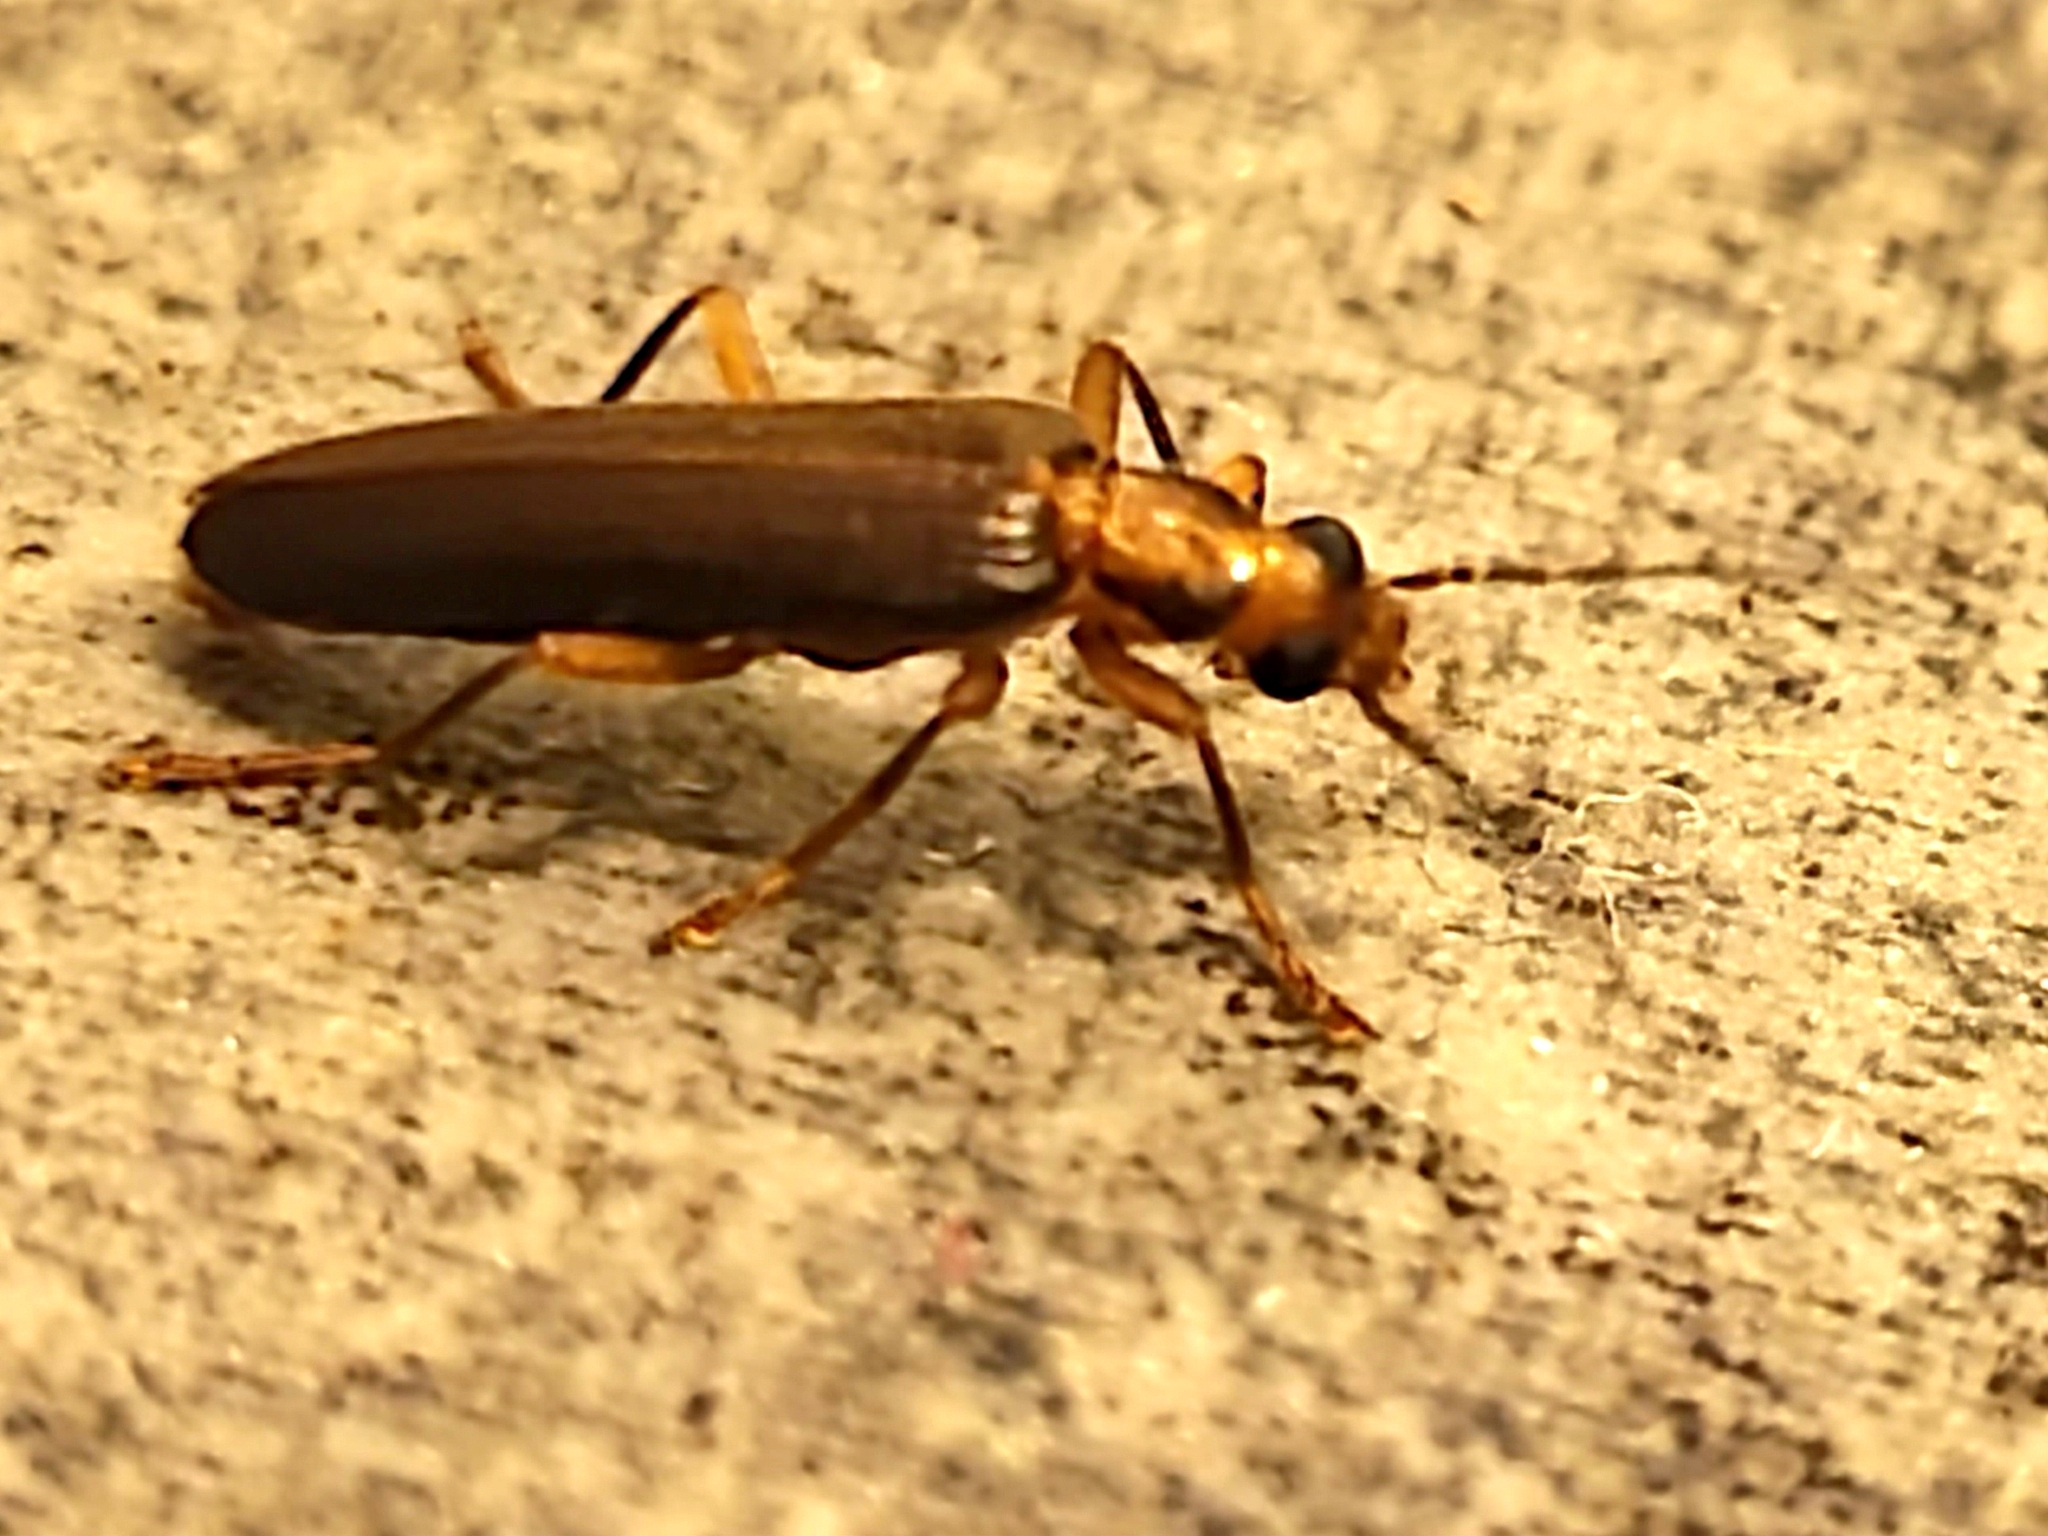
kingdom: Animalia
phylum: Arthropoda
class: Insecta
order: Coleoptera
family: Oedemeridae
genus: Nacerdes
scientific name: Nacerdes carniolica
